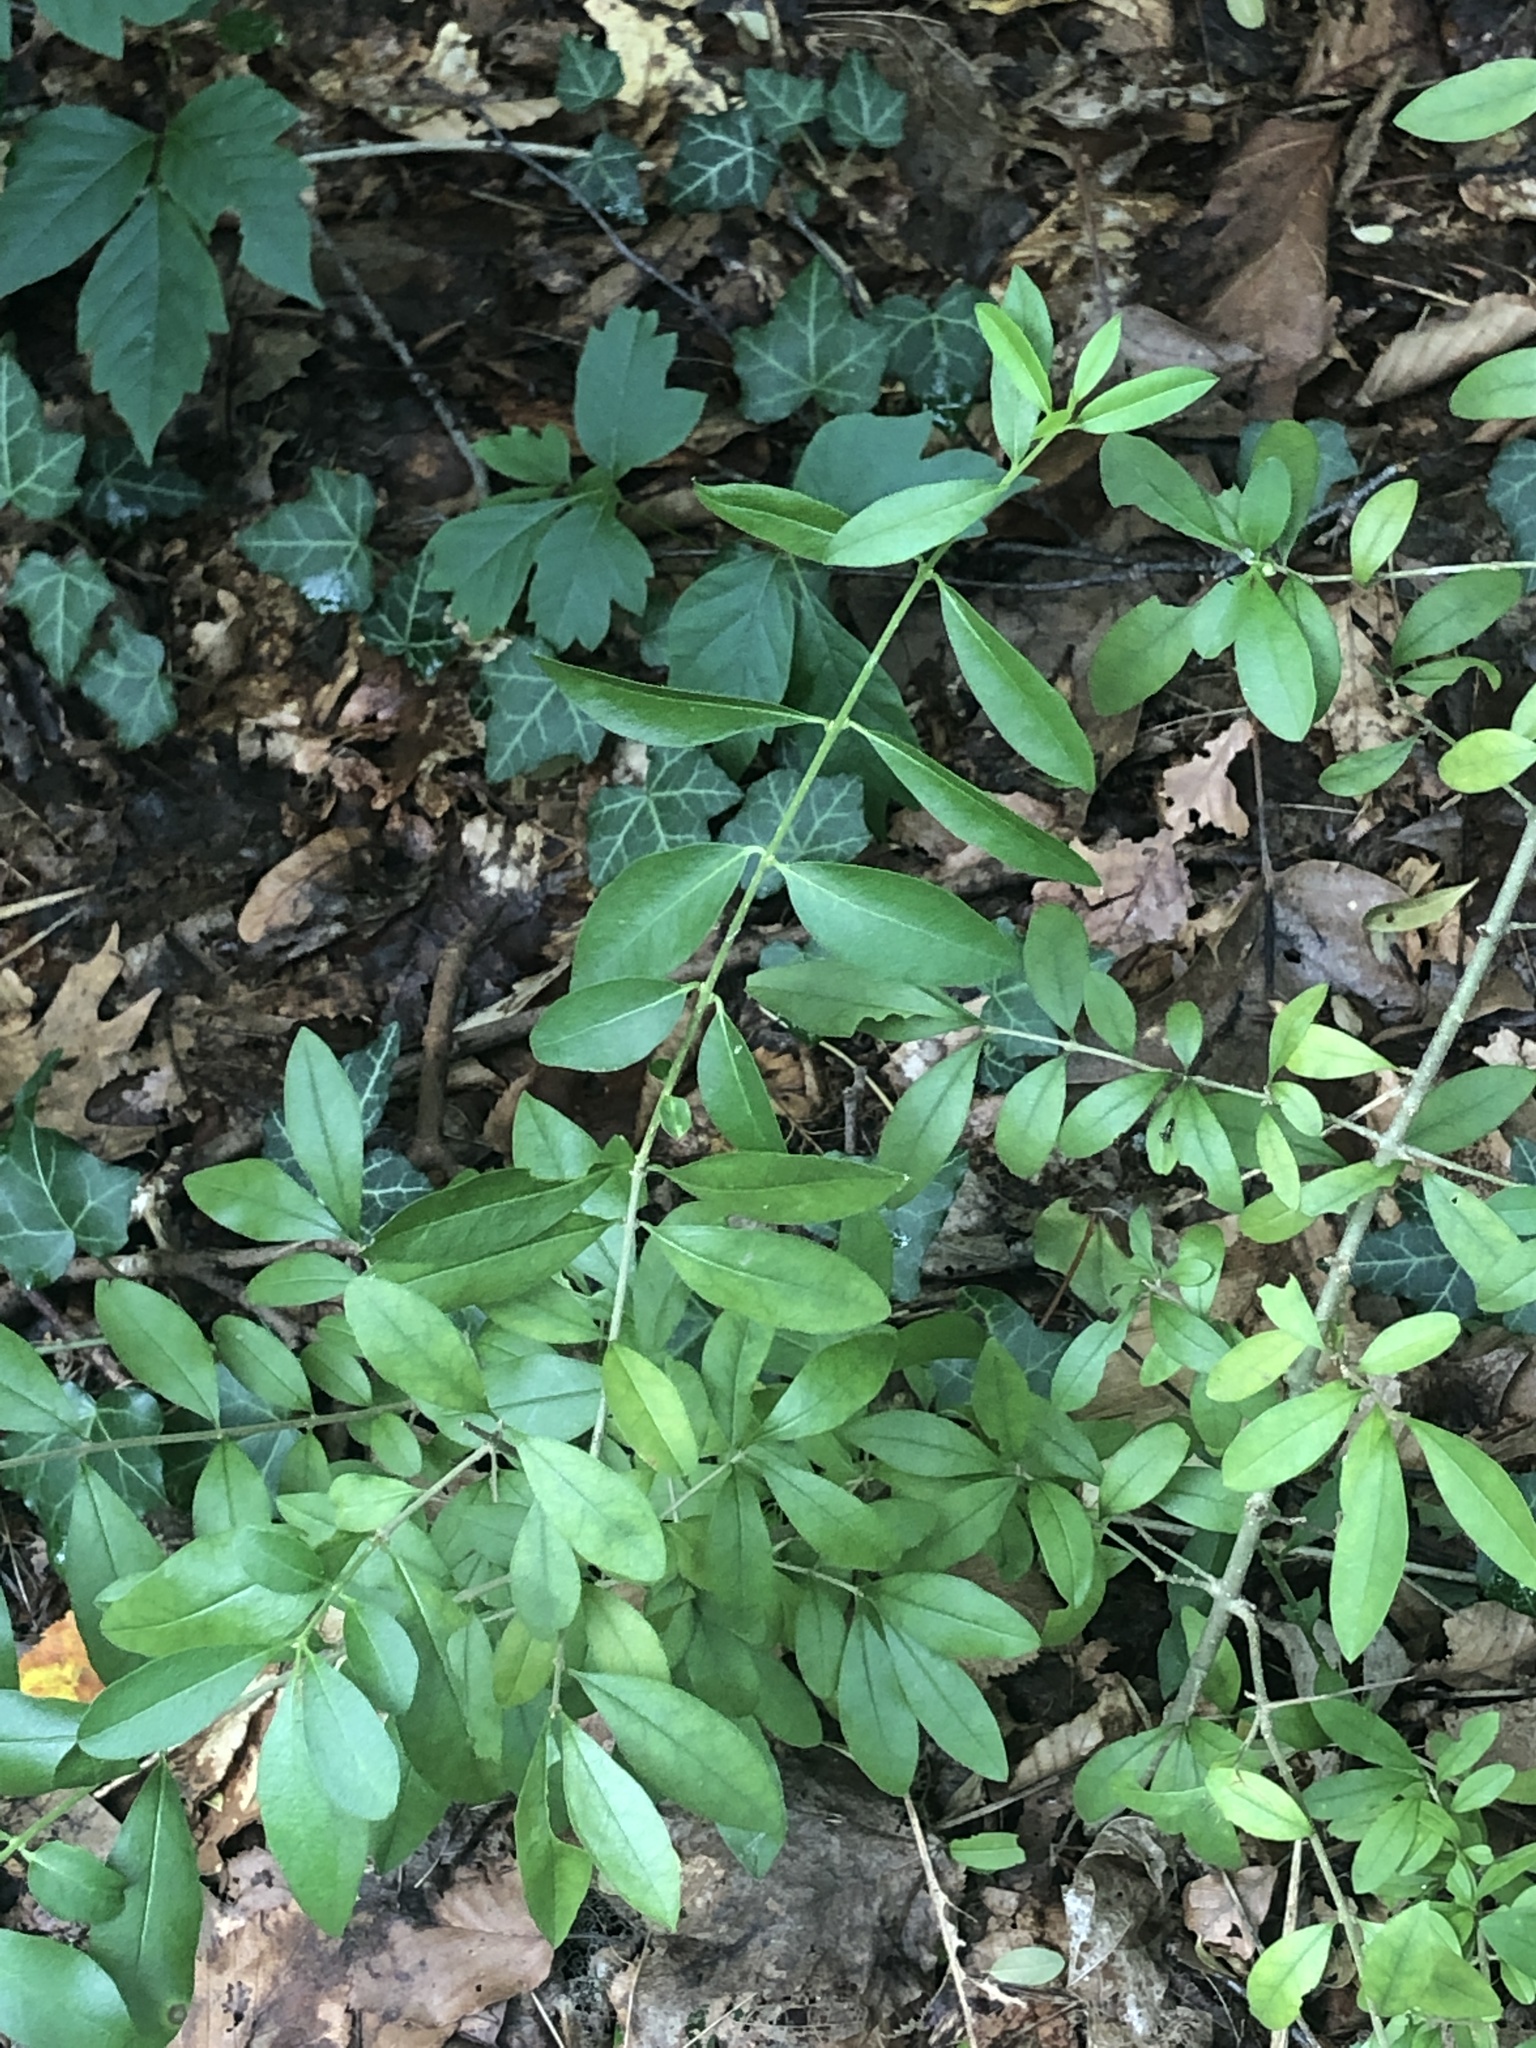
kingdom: Plantae
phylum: Tracheophyta
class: Magnoliopsida
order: Lamiales
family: Oleaceae
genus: Ligustrum
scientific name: Ligustrum obtusifolium
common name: Border privet
